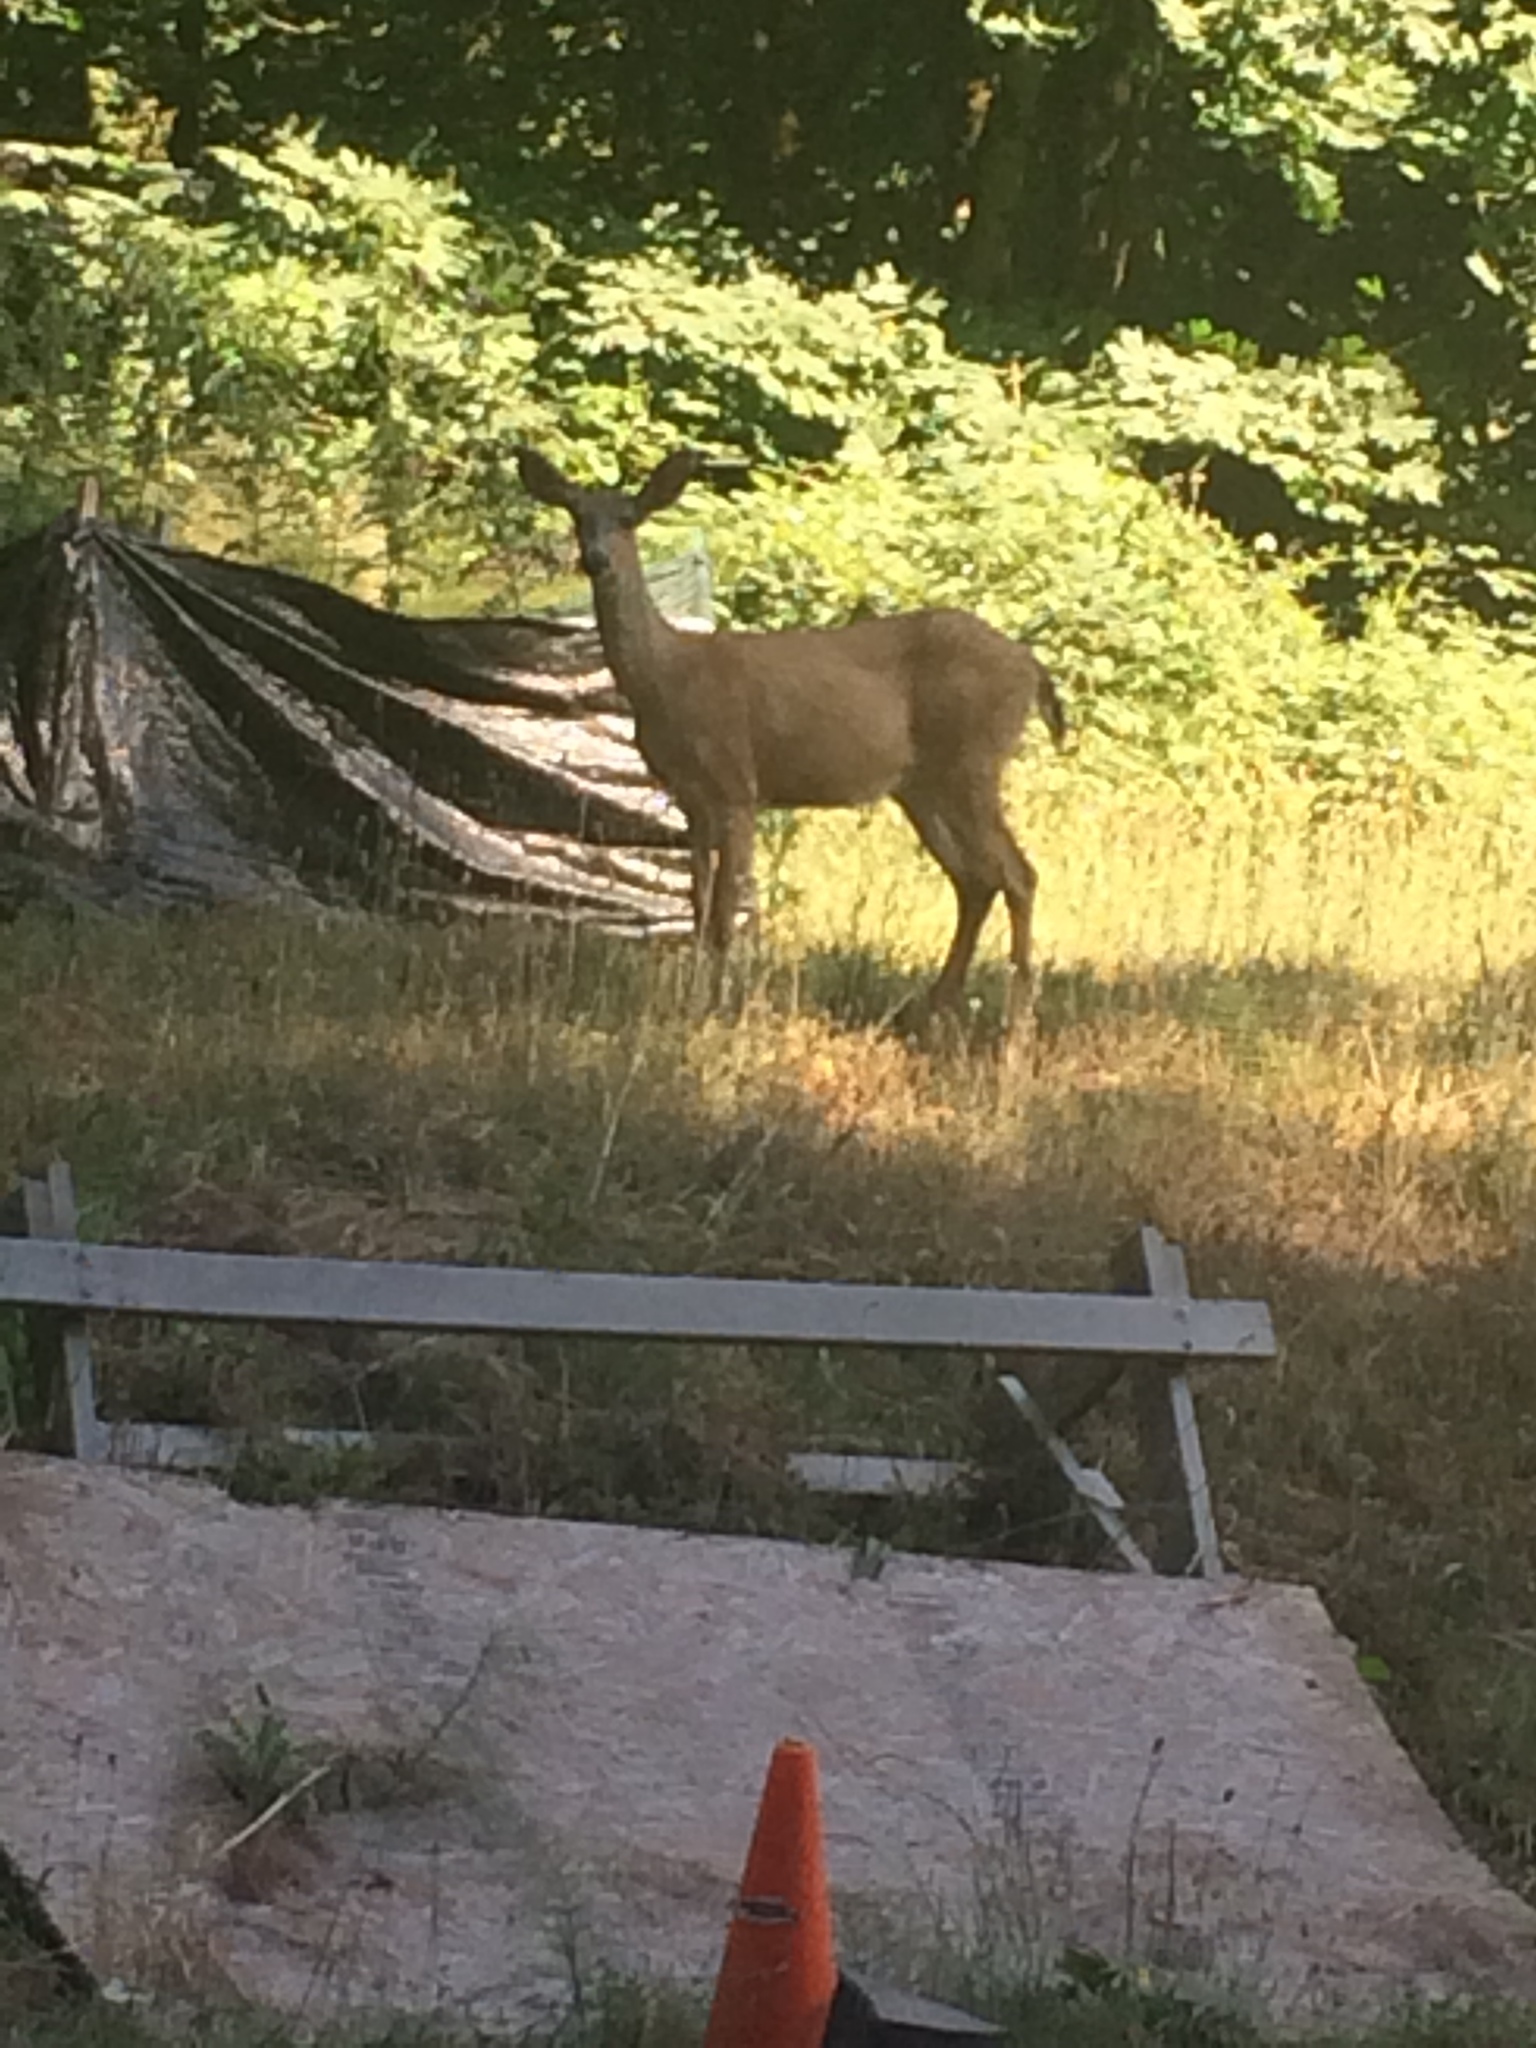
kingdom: Animalia
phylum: Chordata
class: Mammalia
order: Artiodactyla
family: Cervidae
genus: Odocoileus
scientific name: Odocoileus hemionus
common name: Mule deer
